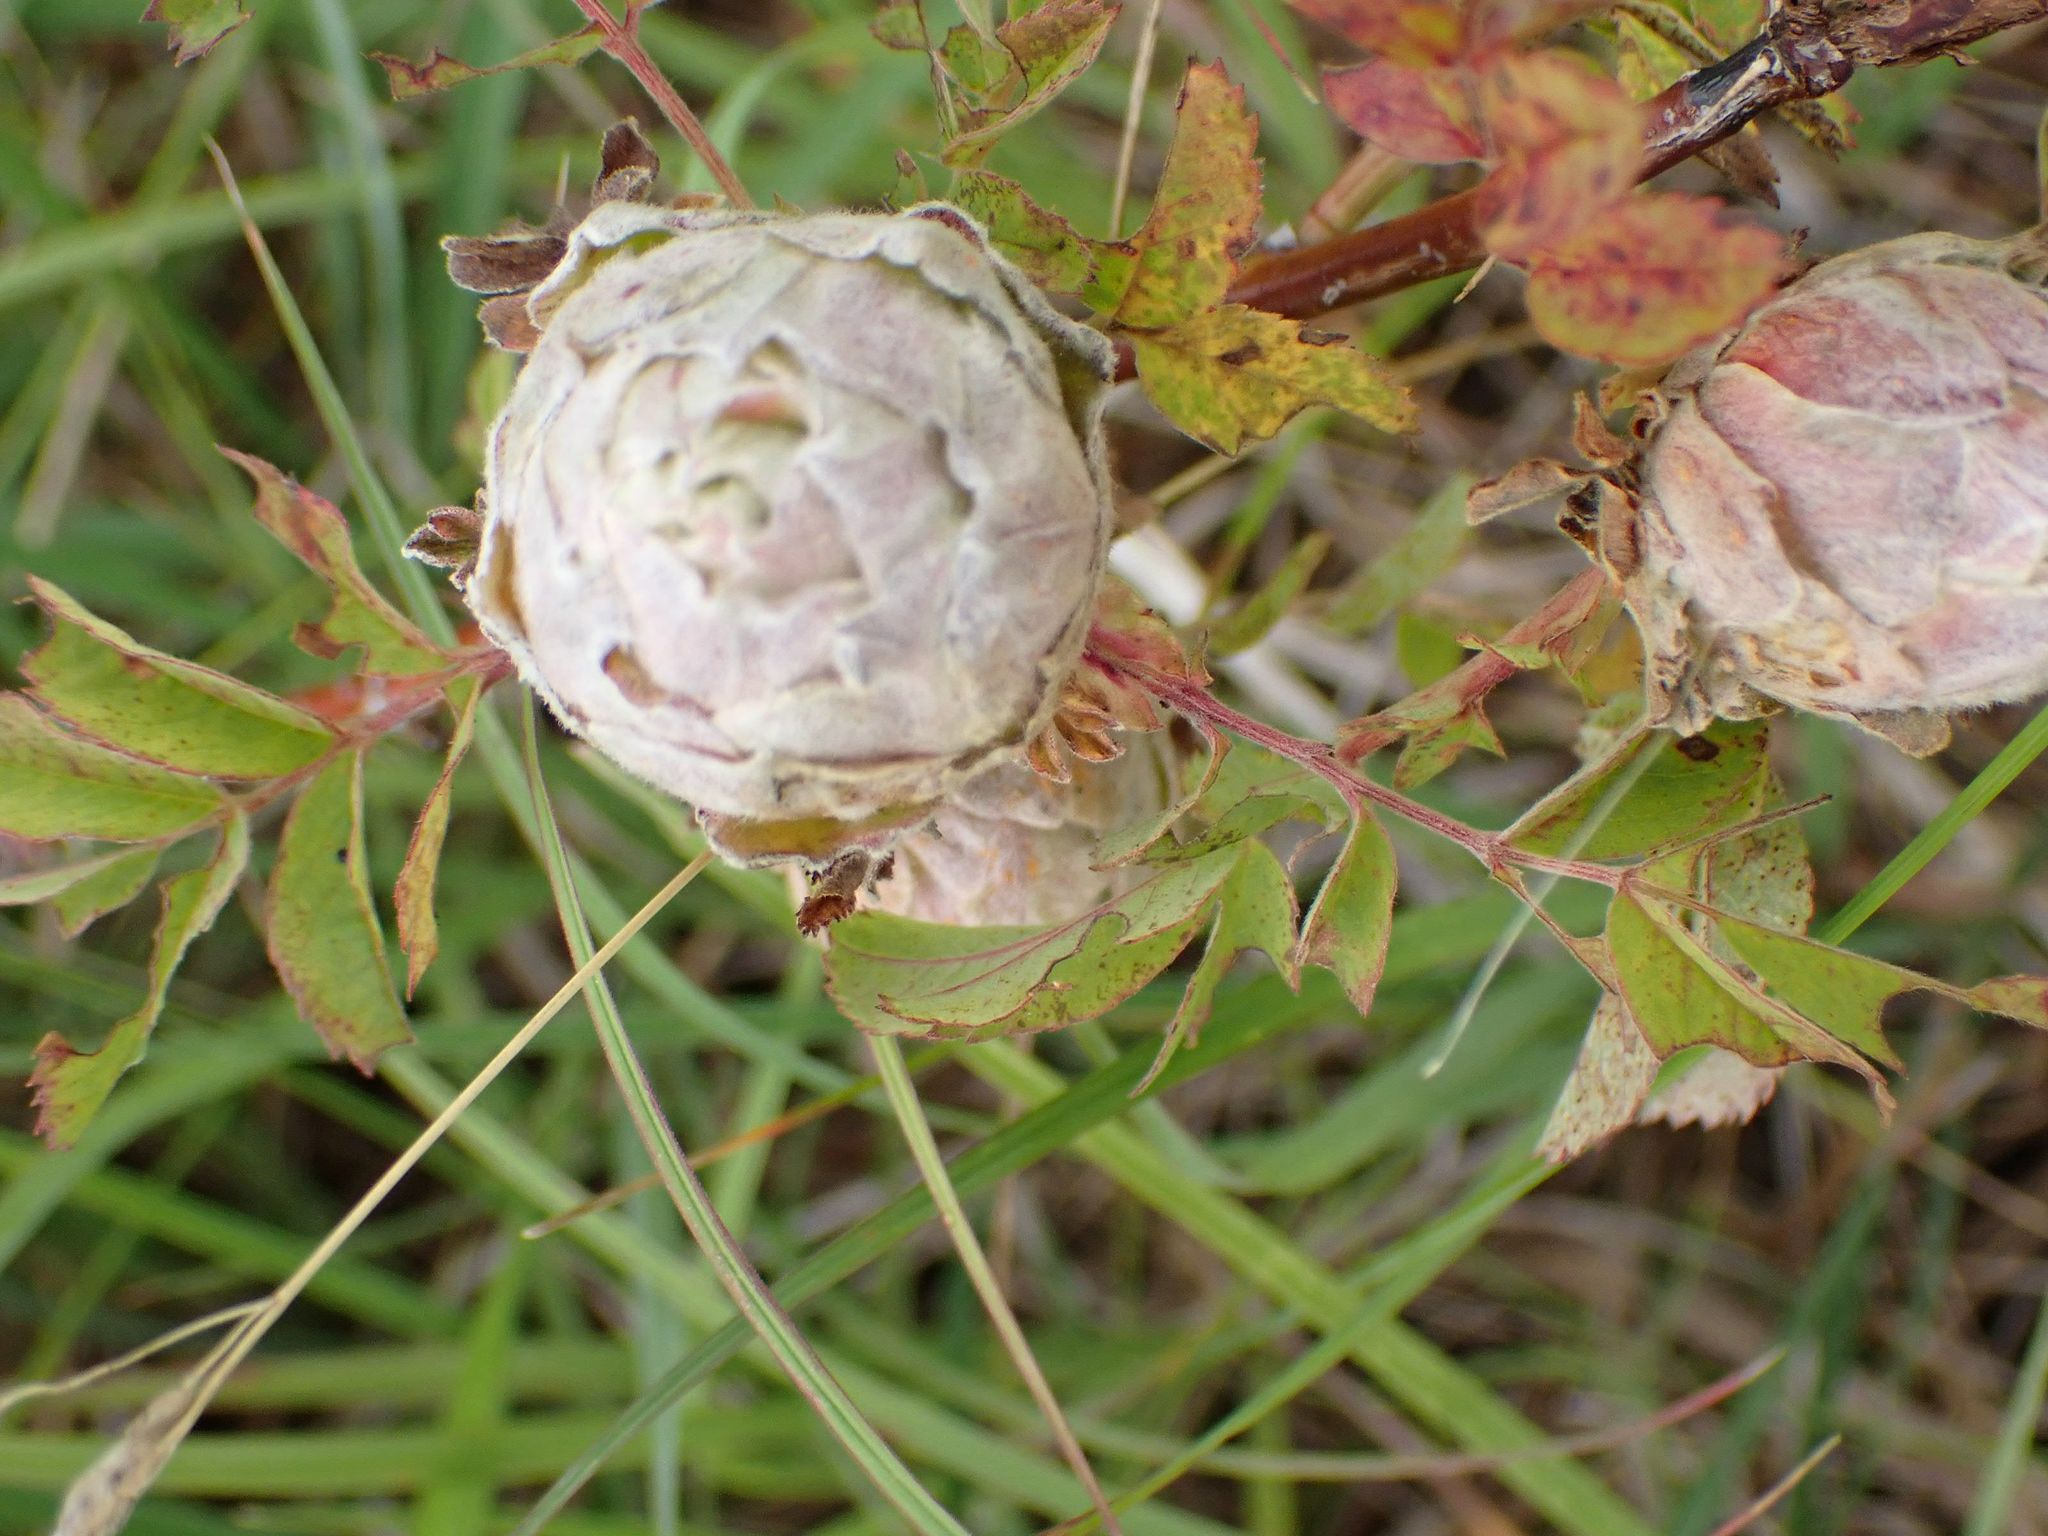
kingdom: Animalia
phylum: Arthropoda
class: Insecta
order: Diptera
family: Cecidomyiidae
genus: Rabdophaga
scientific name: Rabdophaga rosacea
